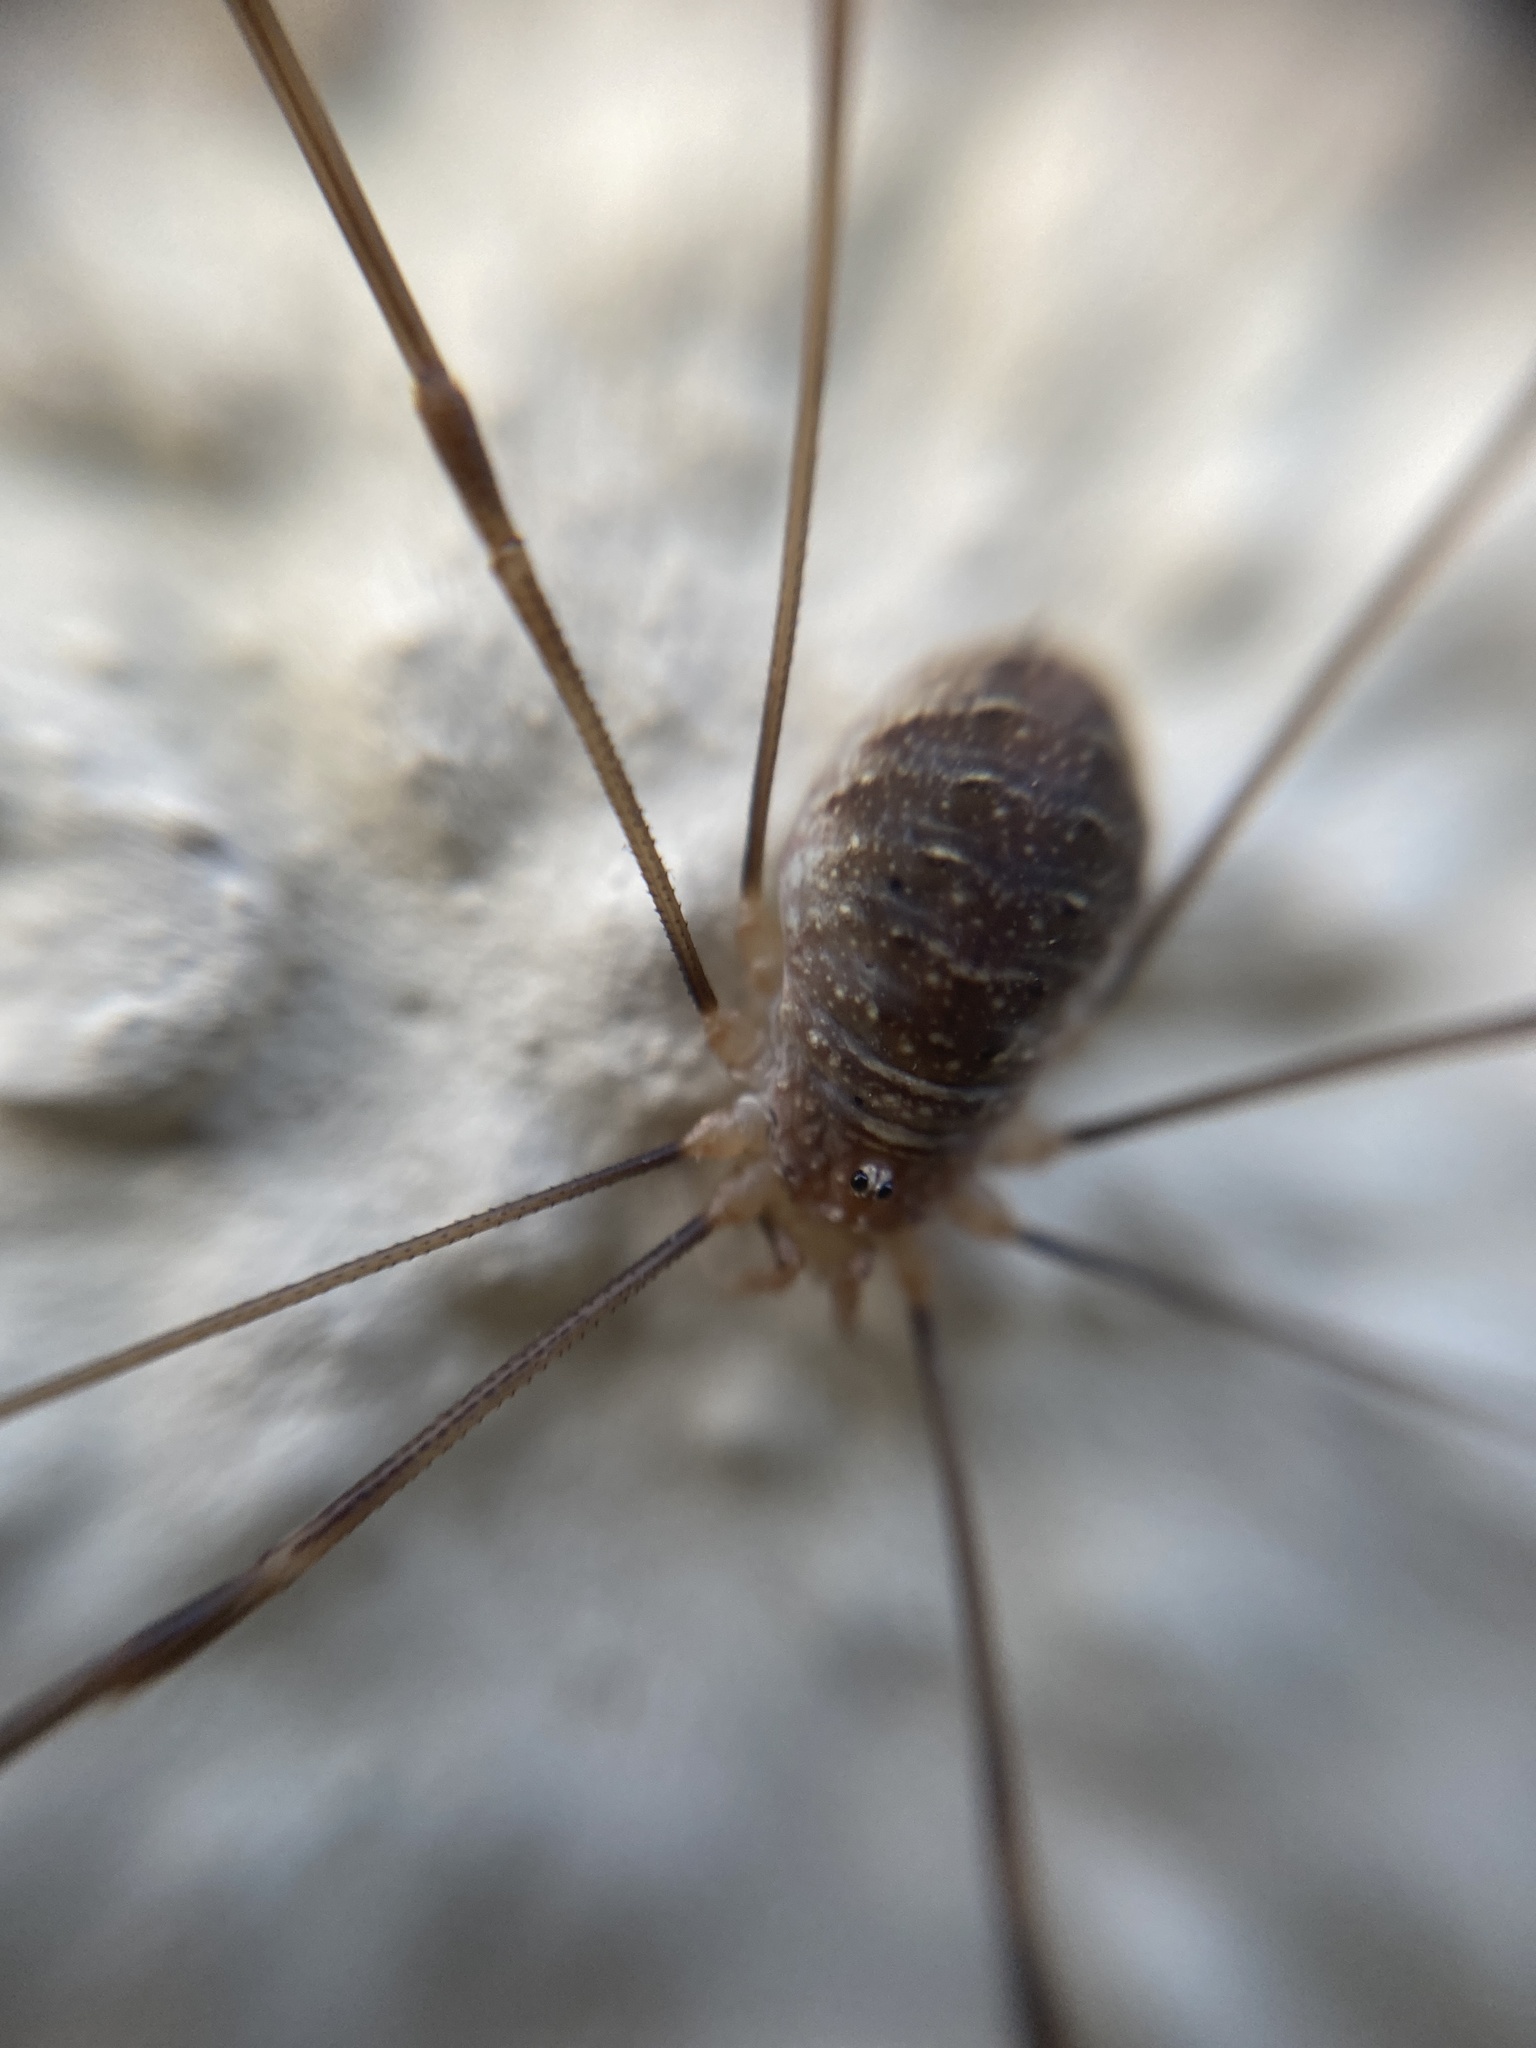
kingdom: Animalia
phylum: Arthropoda
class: Arachnida
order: Opiliones
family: Phalangiidae
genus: Opilio
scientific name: Opilio canestrinii
